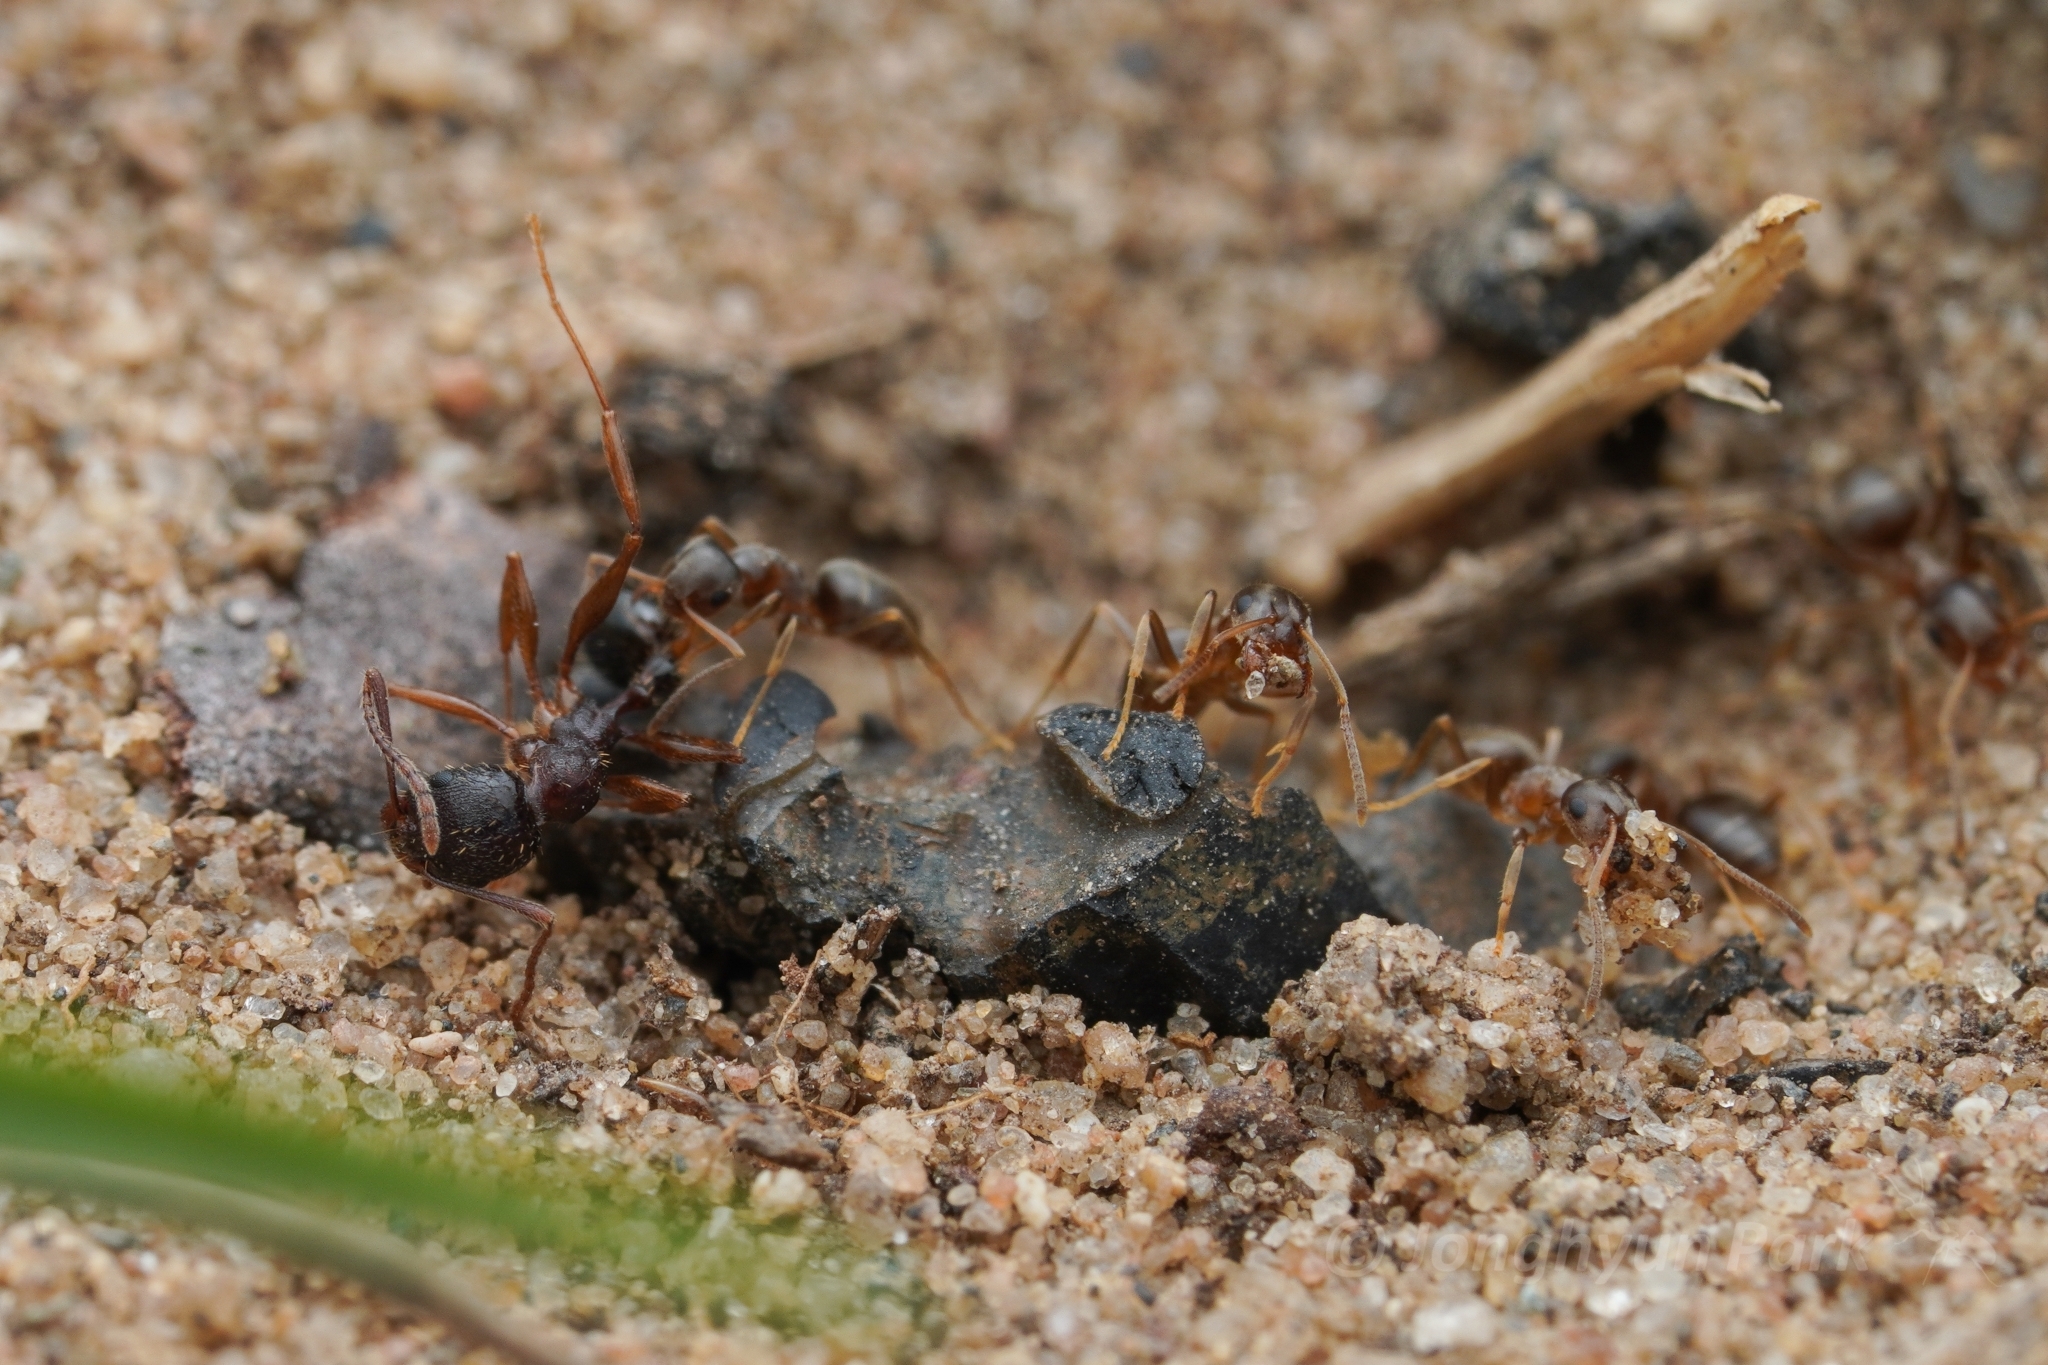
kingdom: Animalia
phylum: Arthropoda
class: Insecta
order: Hymenoptera
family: Formicidae
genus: Lasius
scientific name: Lasius americanus
